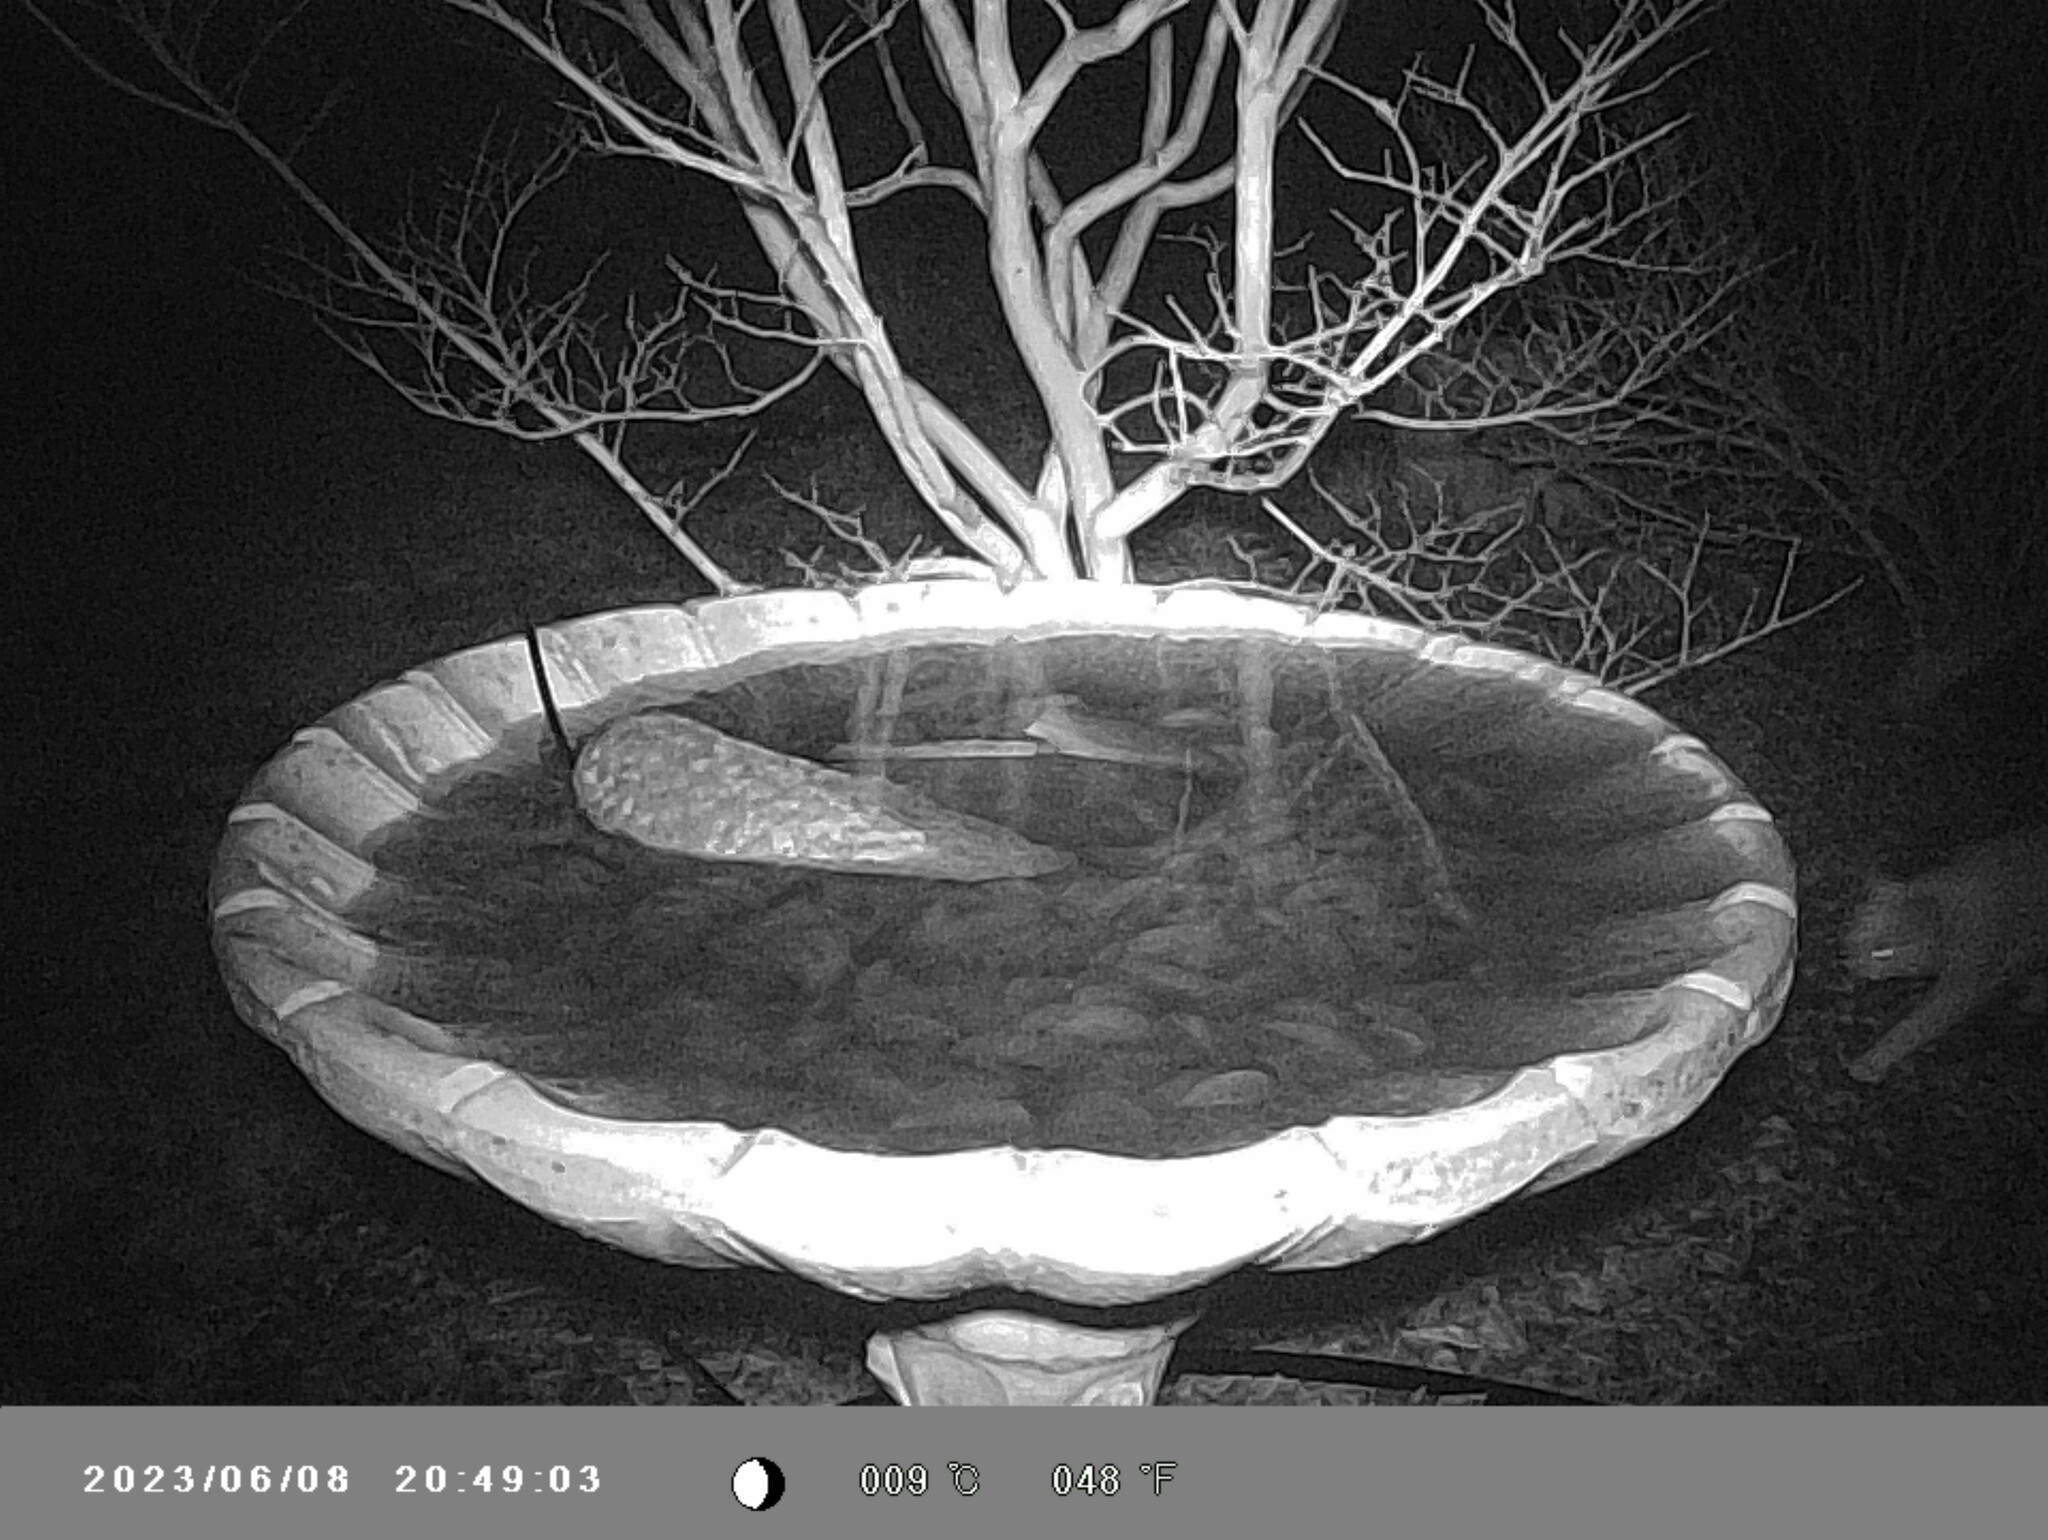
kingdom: Animalia
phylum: Chordata
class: Mammalia
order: Carnivora
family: Felidae
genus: Felis
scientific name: Felis catus
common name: Domestic cat
